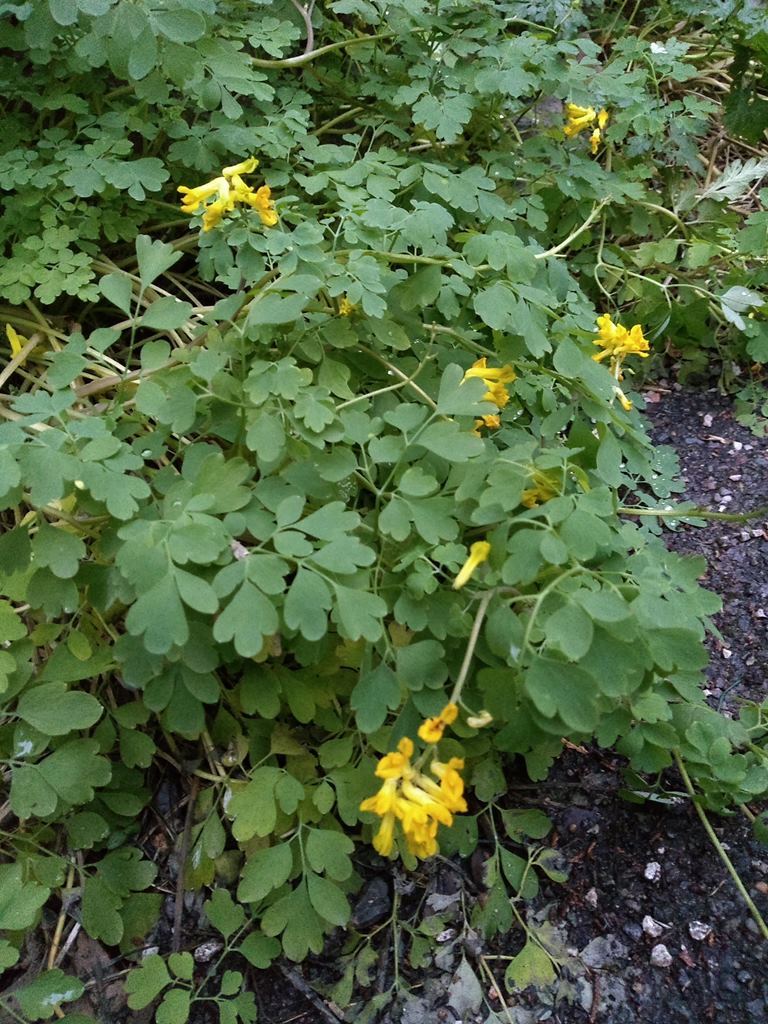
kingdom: Plantae
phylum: Tracheophyta
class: Magnoliopsida
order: Ranunculales
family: Papaveraceae
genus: Pseudofumaria
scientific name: Pseudofumaria lutea
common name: Yellow corydalis
